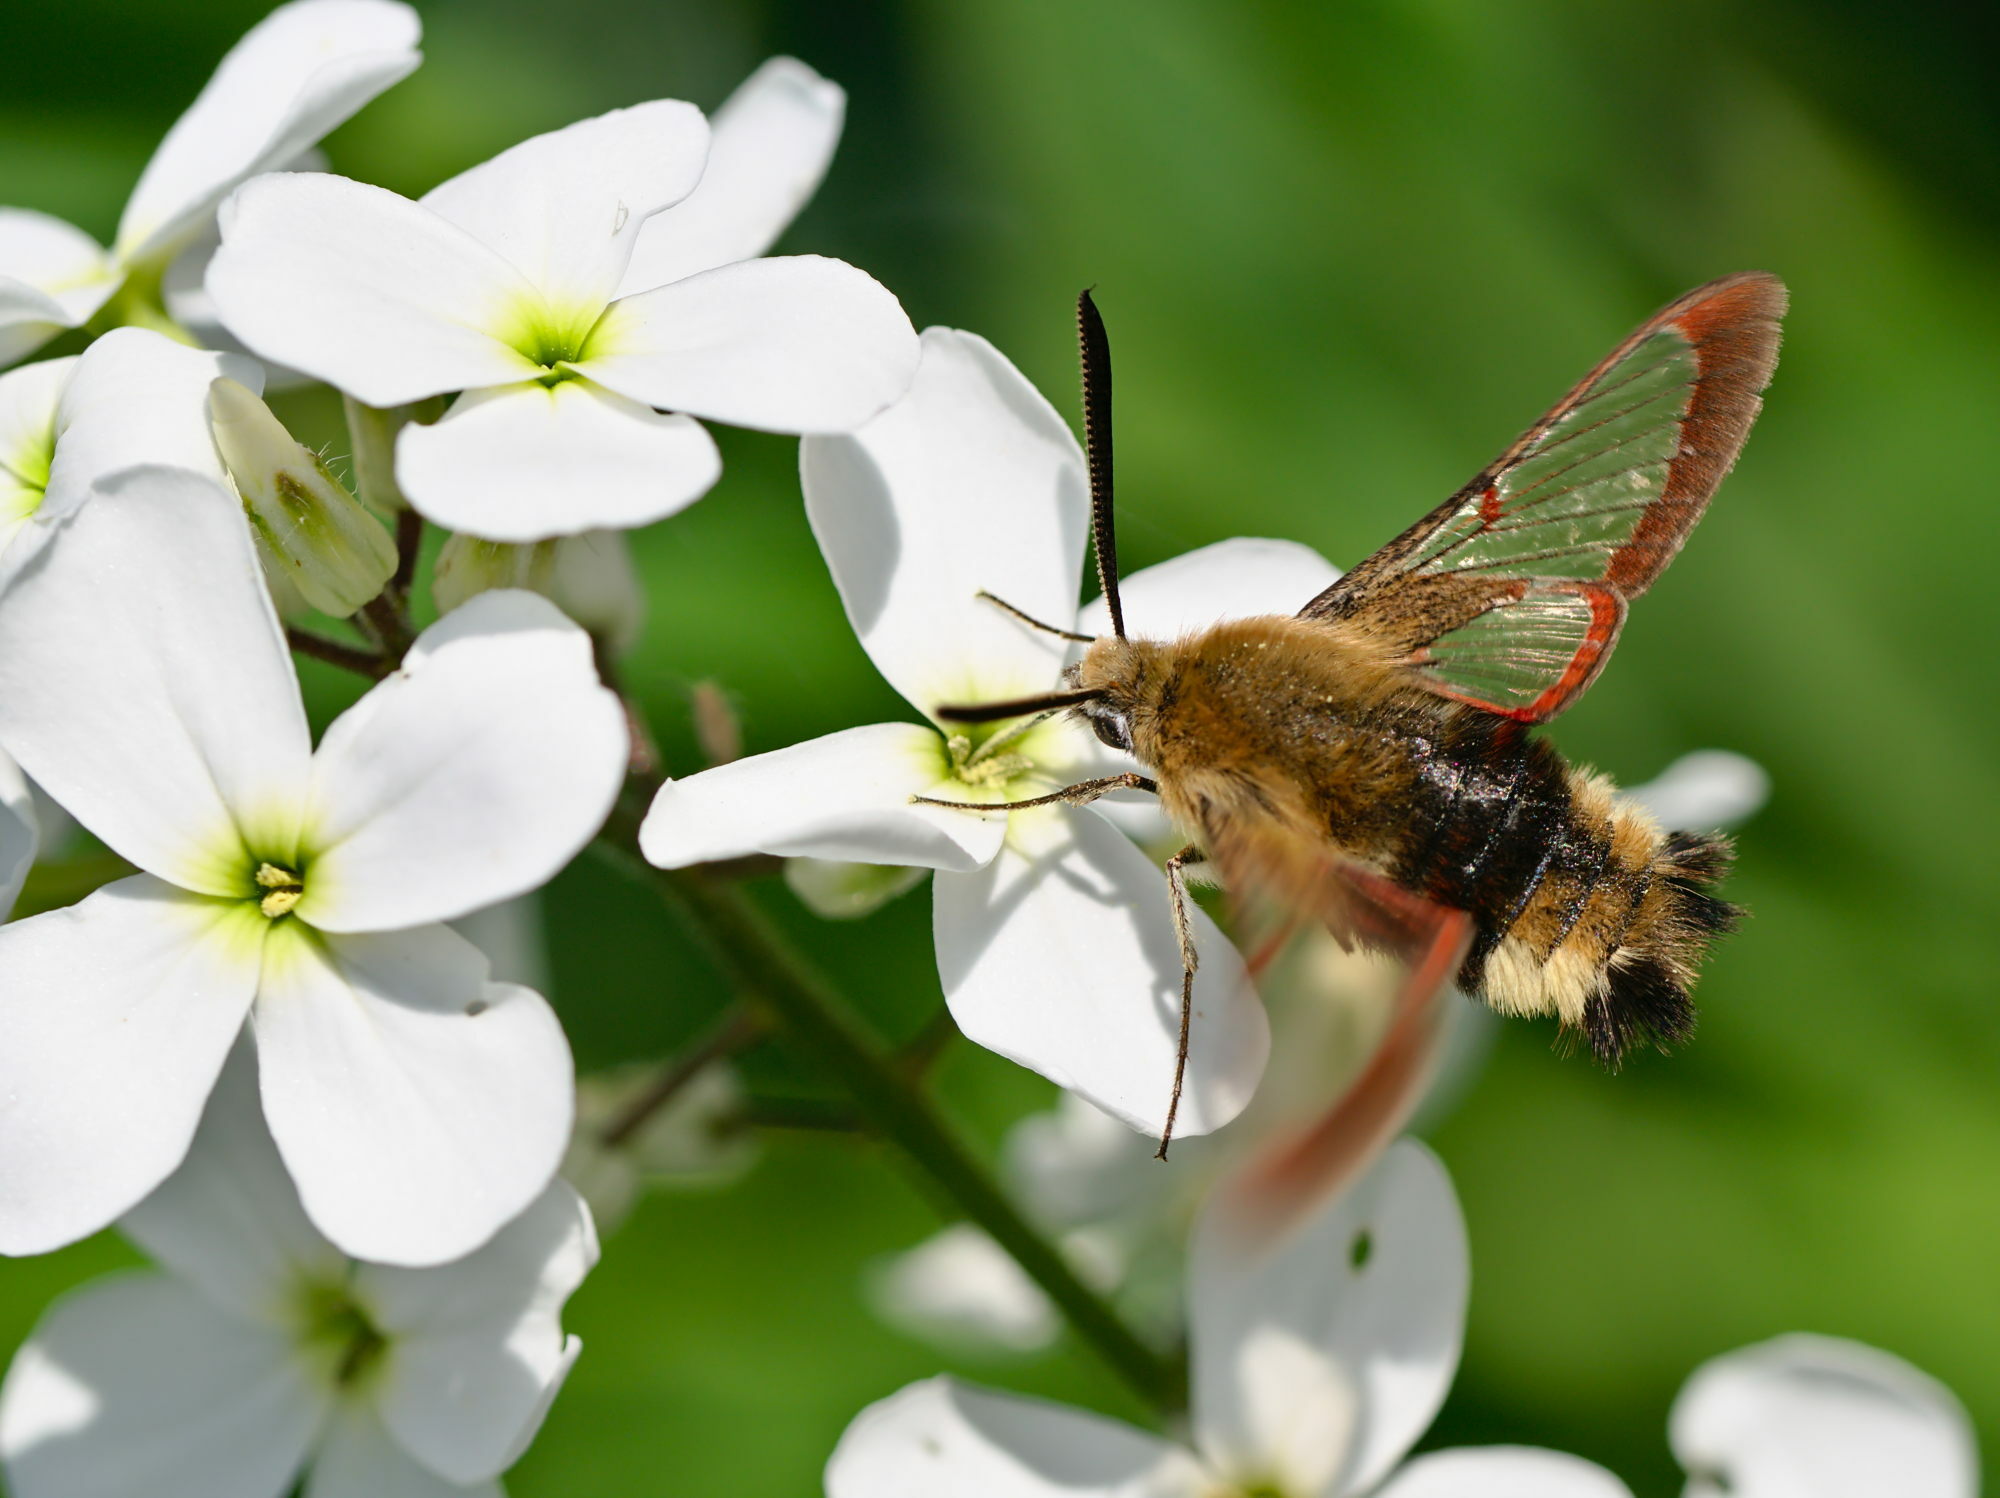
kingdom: Animalia
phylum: Arthropoda
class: Insecta
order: Lepidoptera
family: Sphingidae
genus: Hemaris
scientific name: Hemaris fuciformis
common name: Broad-bordered bee hawk-moth
